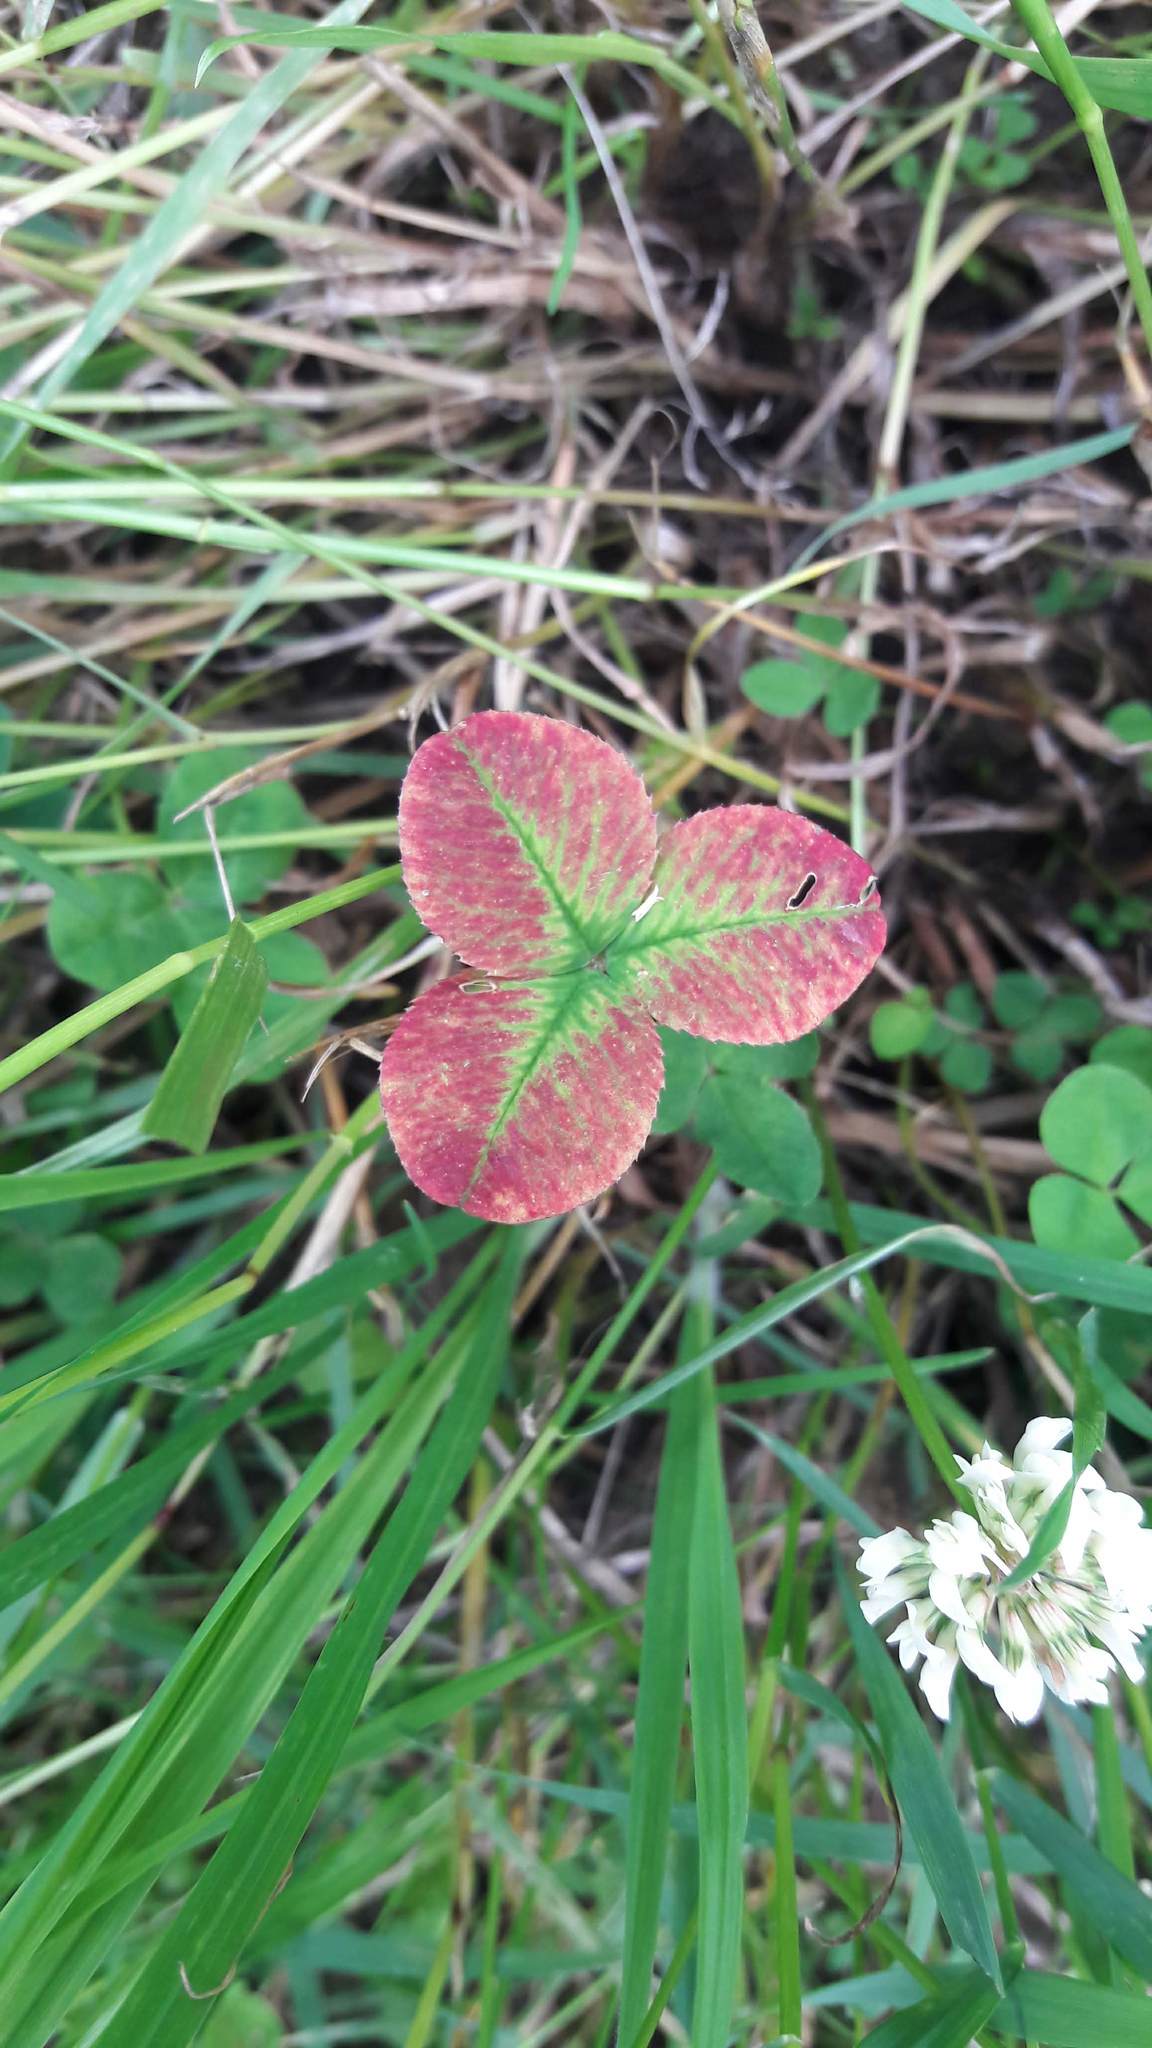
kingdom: Plantae
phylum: Tracheophyta
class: Magnoliopsida
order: Fabales
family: Fabaceae
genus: Trifolium
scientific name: Trifolium repens
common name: White clover
